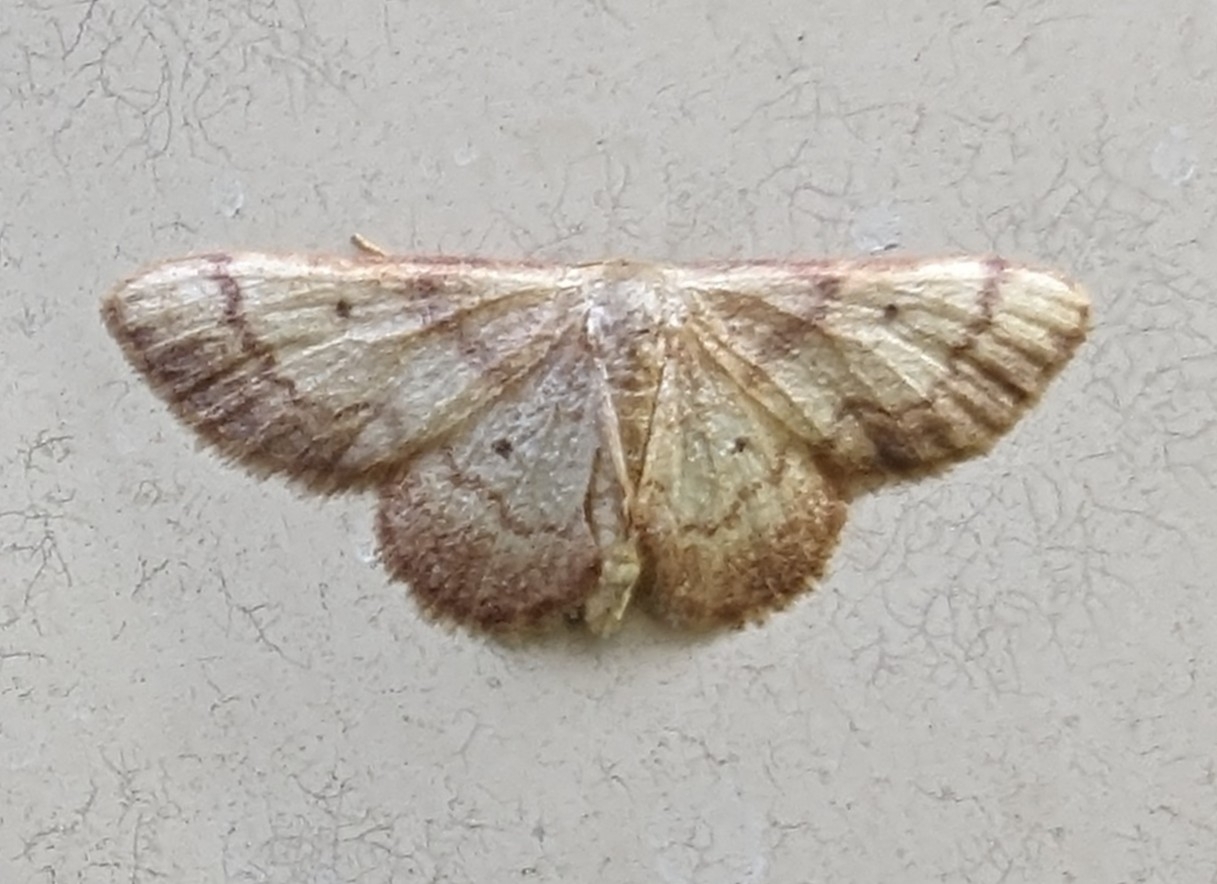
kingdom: Animalia
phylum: Arthropoda
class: Insecta
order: Lepidoptera
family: Geometridae
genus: Idaea
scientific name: Idaea demissaria
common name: Red-bordered wave
